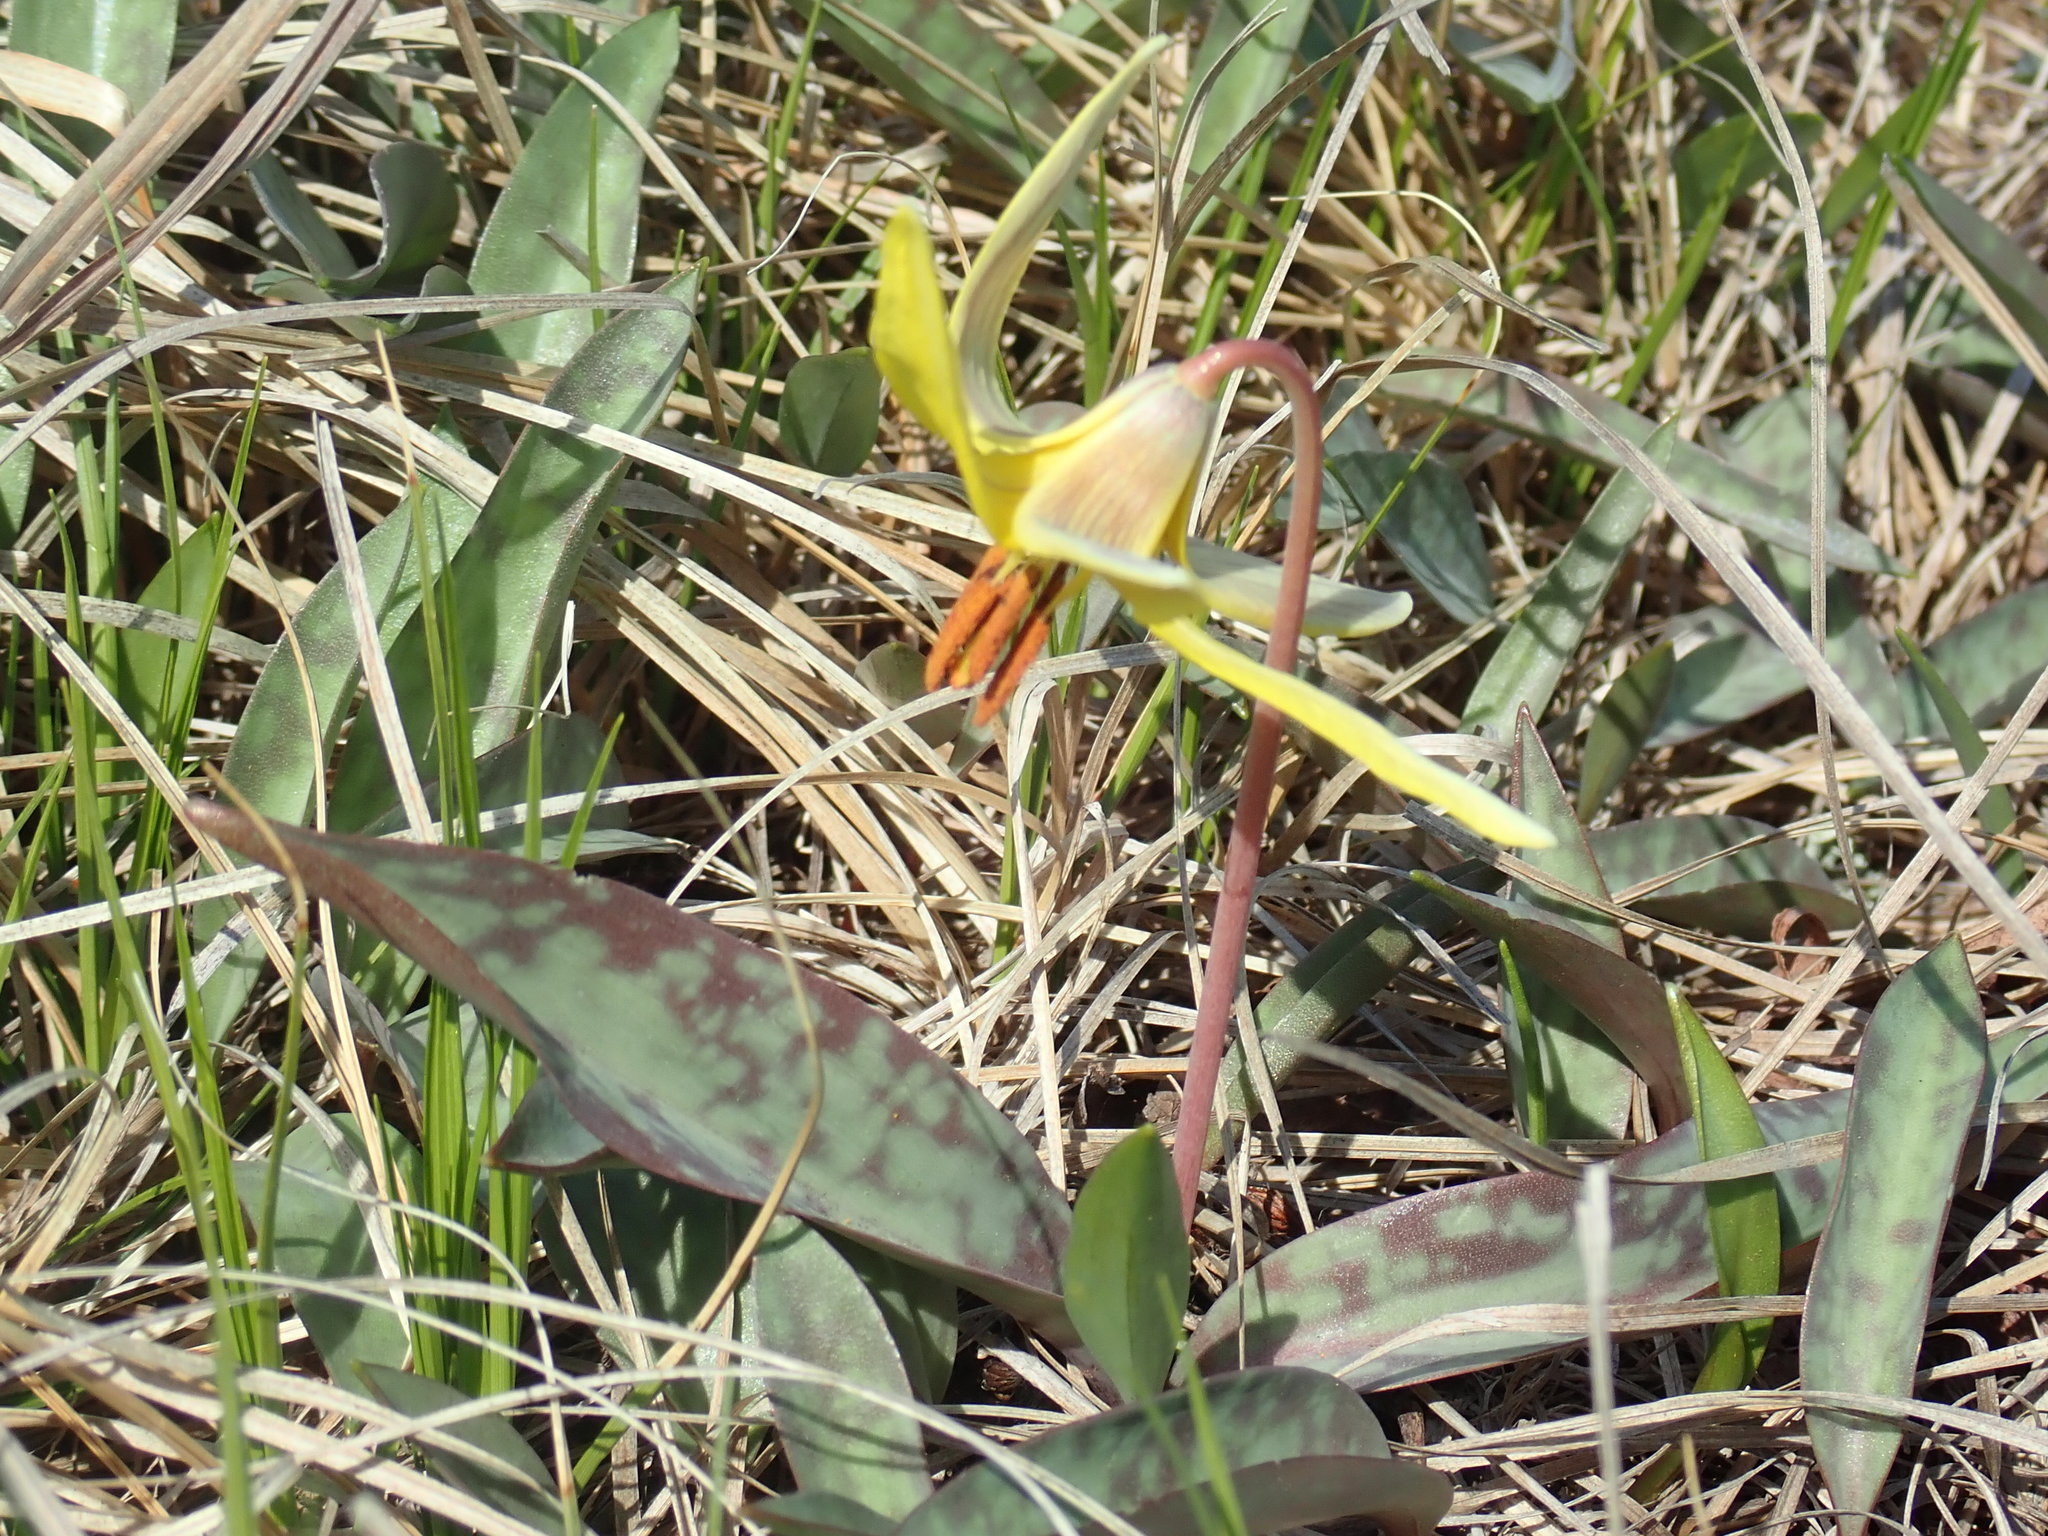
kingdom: Plantae
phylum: Tracheophyta
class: Liliopsida
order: Liliales
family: Liliaceae
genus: Erythronium
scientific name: Erythronium americanum
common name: Yellow adder's-tongue
